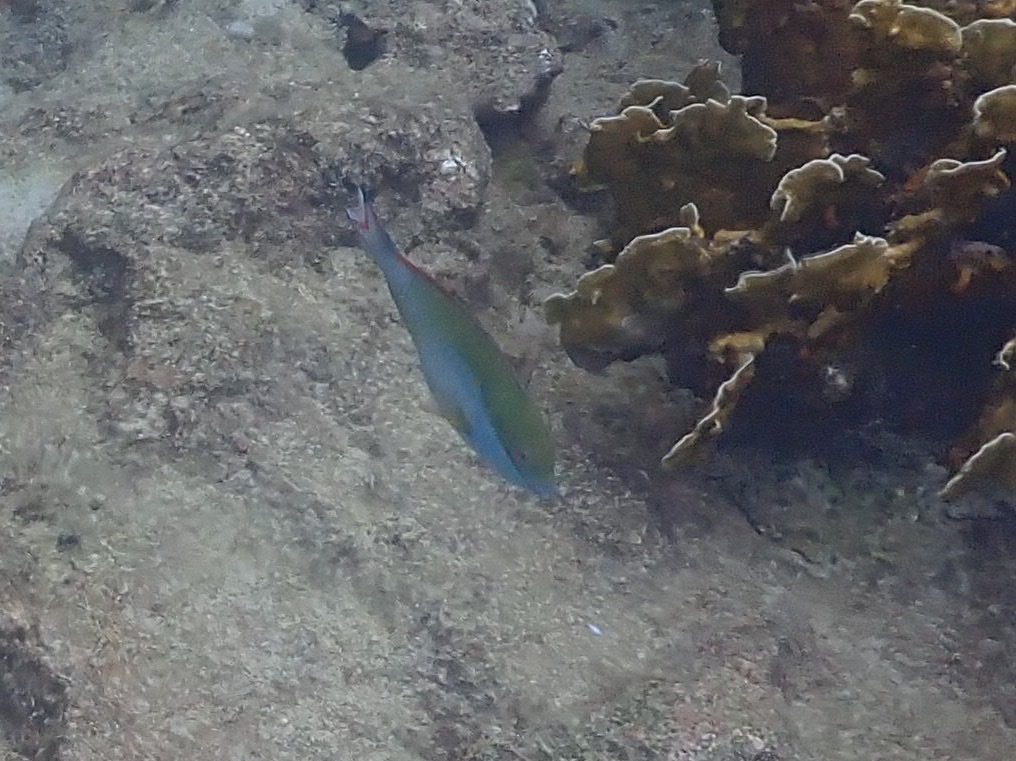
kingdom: Animalia
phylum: Chordata
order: Perciformes
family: Scaridae
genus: Sparisoma
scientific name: Sparisoma aurofrenatum
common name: Redband parrotfish
